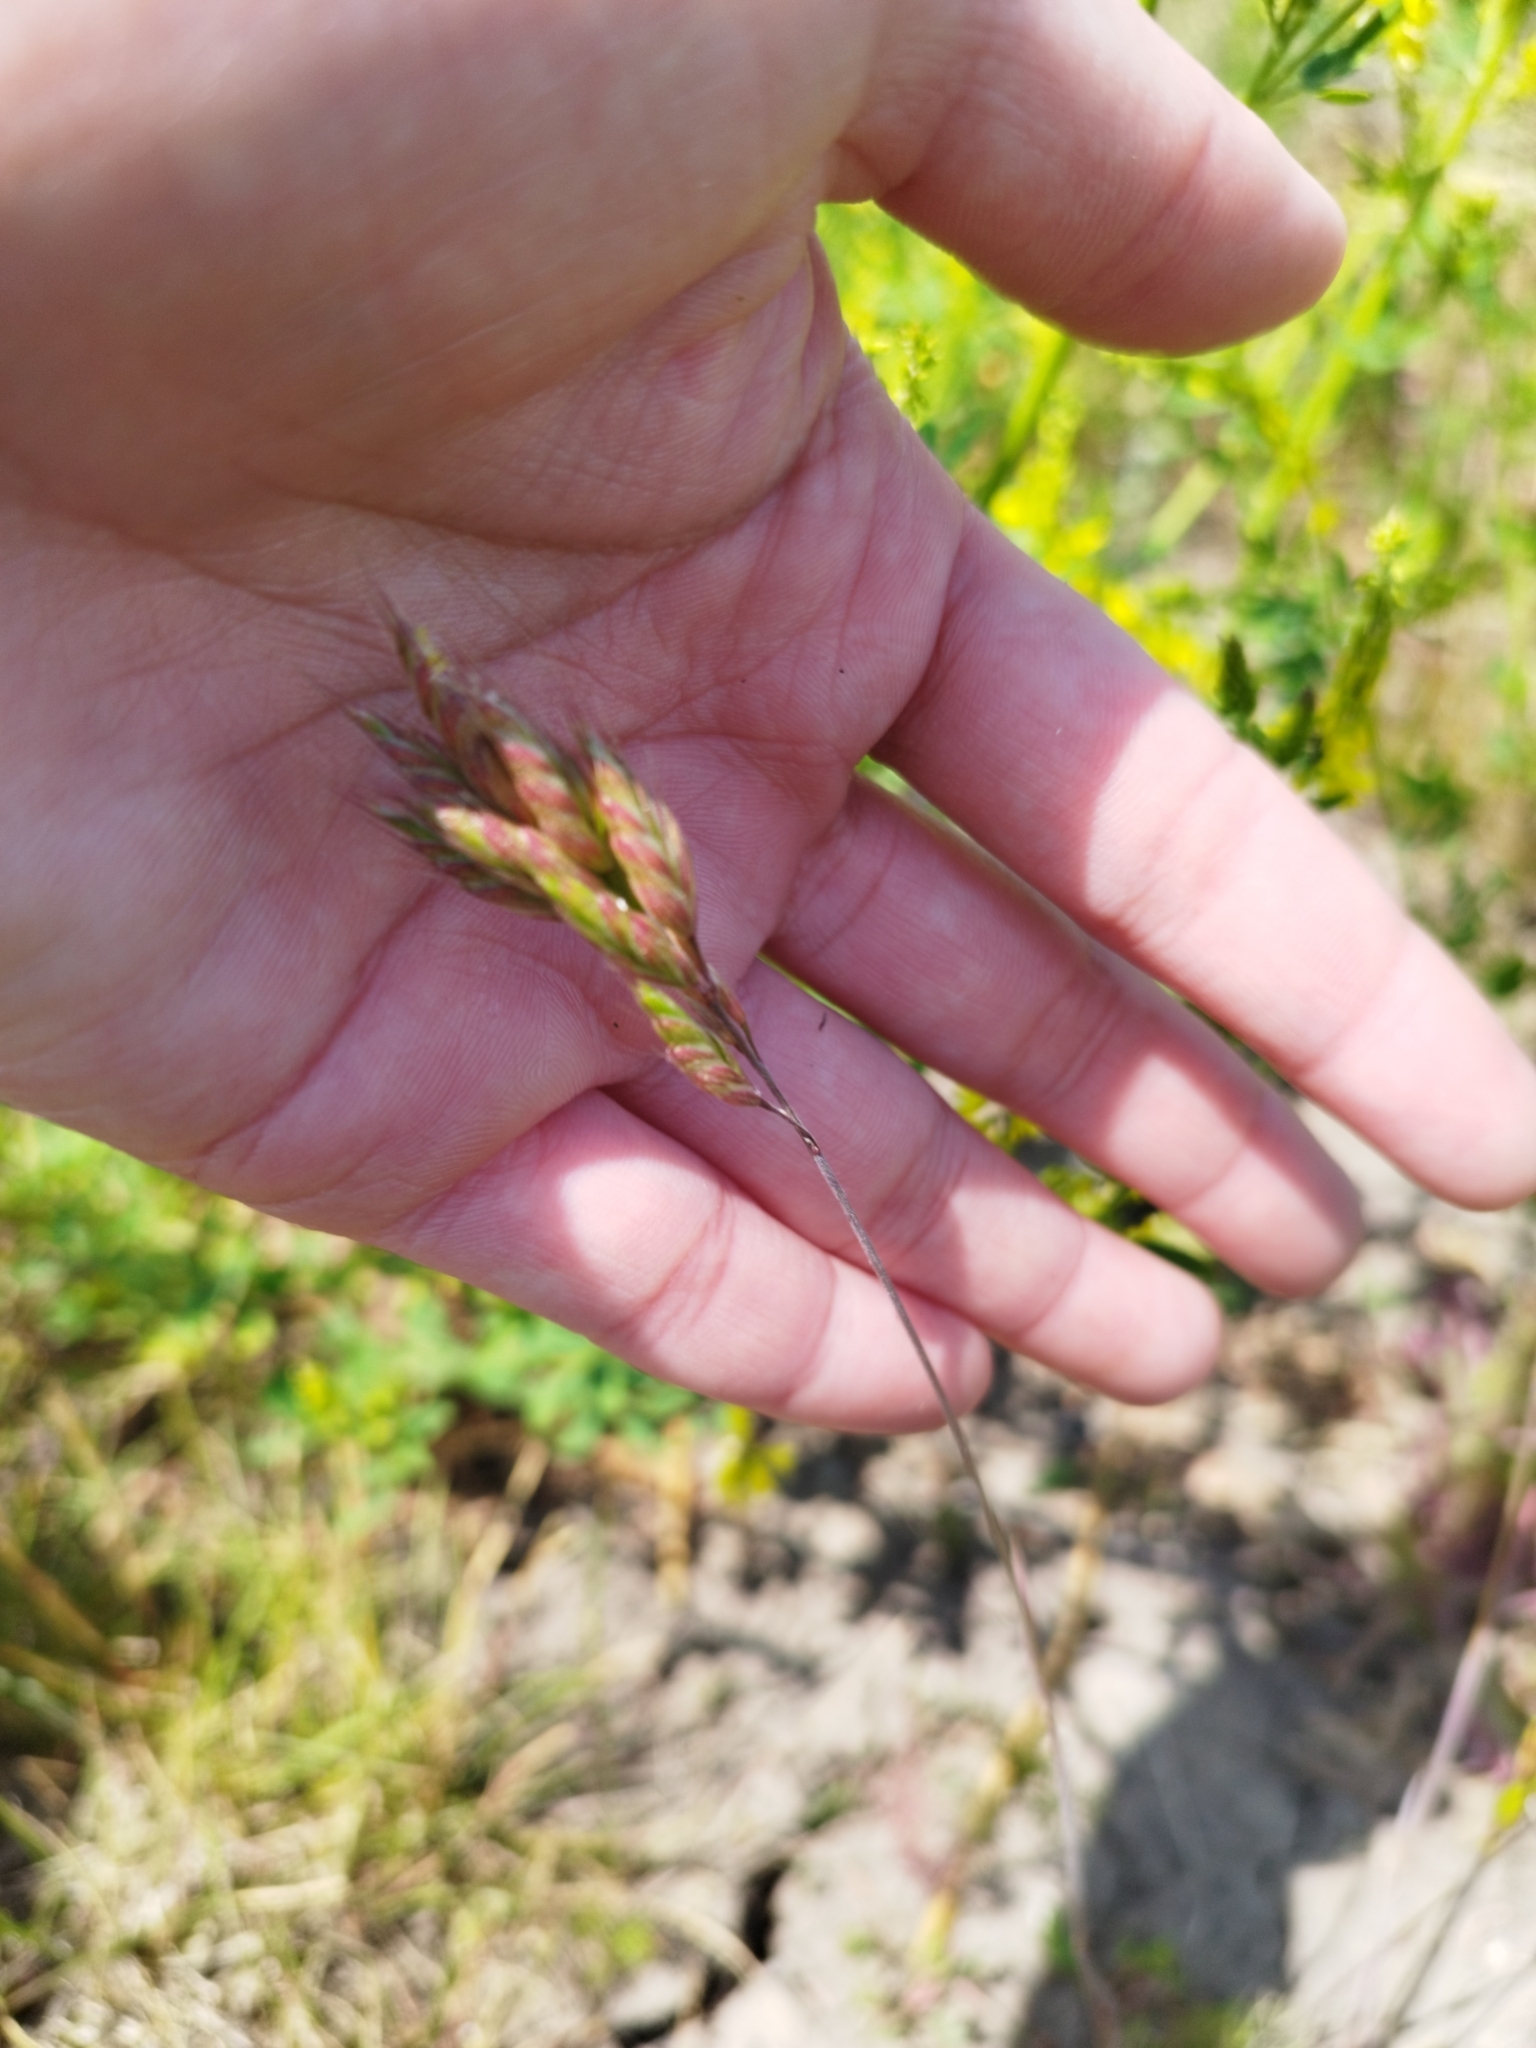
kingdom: Plantae
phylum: Tracheophyta
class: Liliopsida
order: Poales
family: Poaceae
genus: Bromus
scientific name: Bromus hordeaceus
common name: Soft brome
